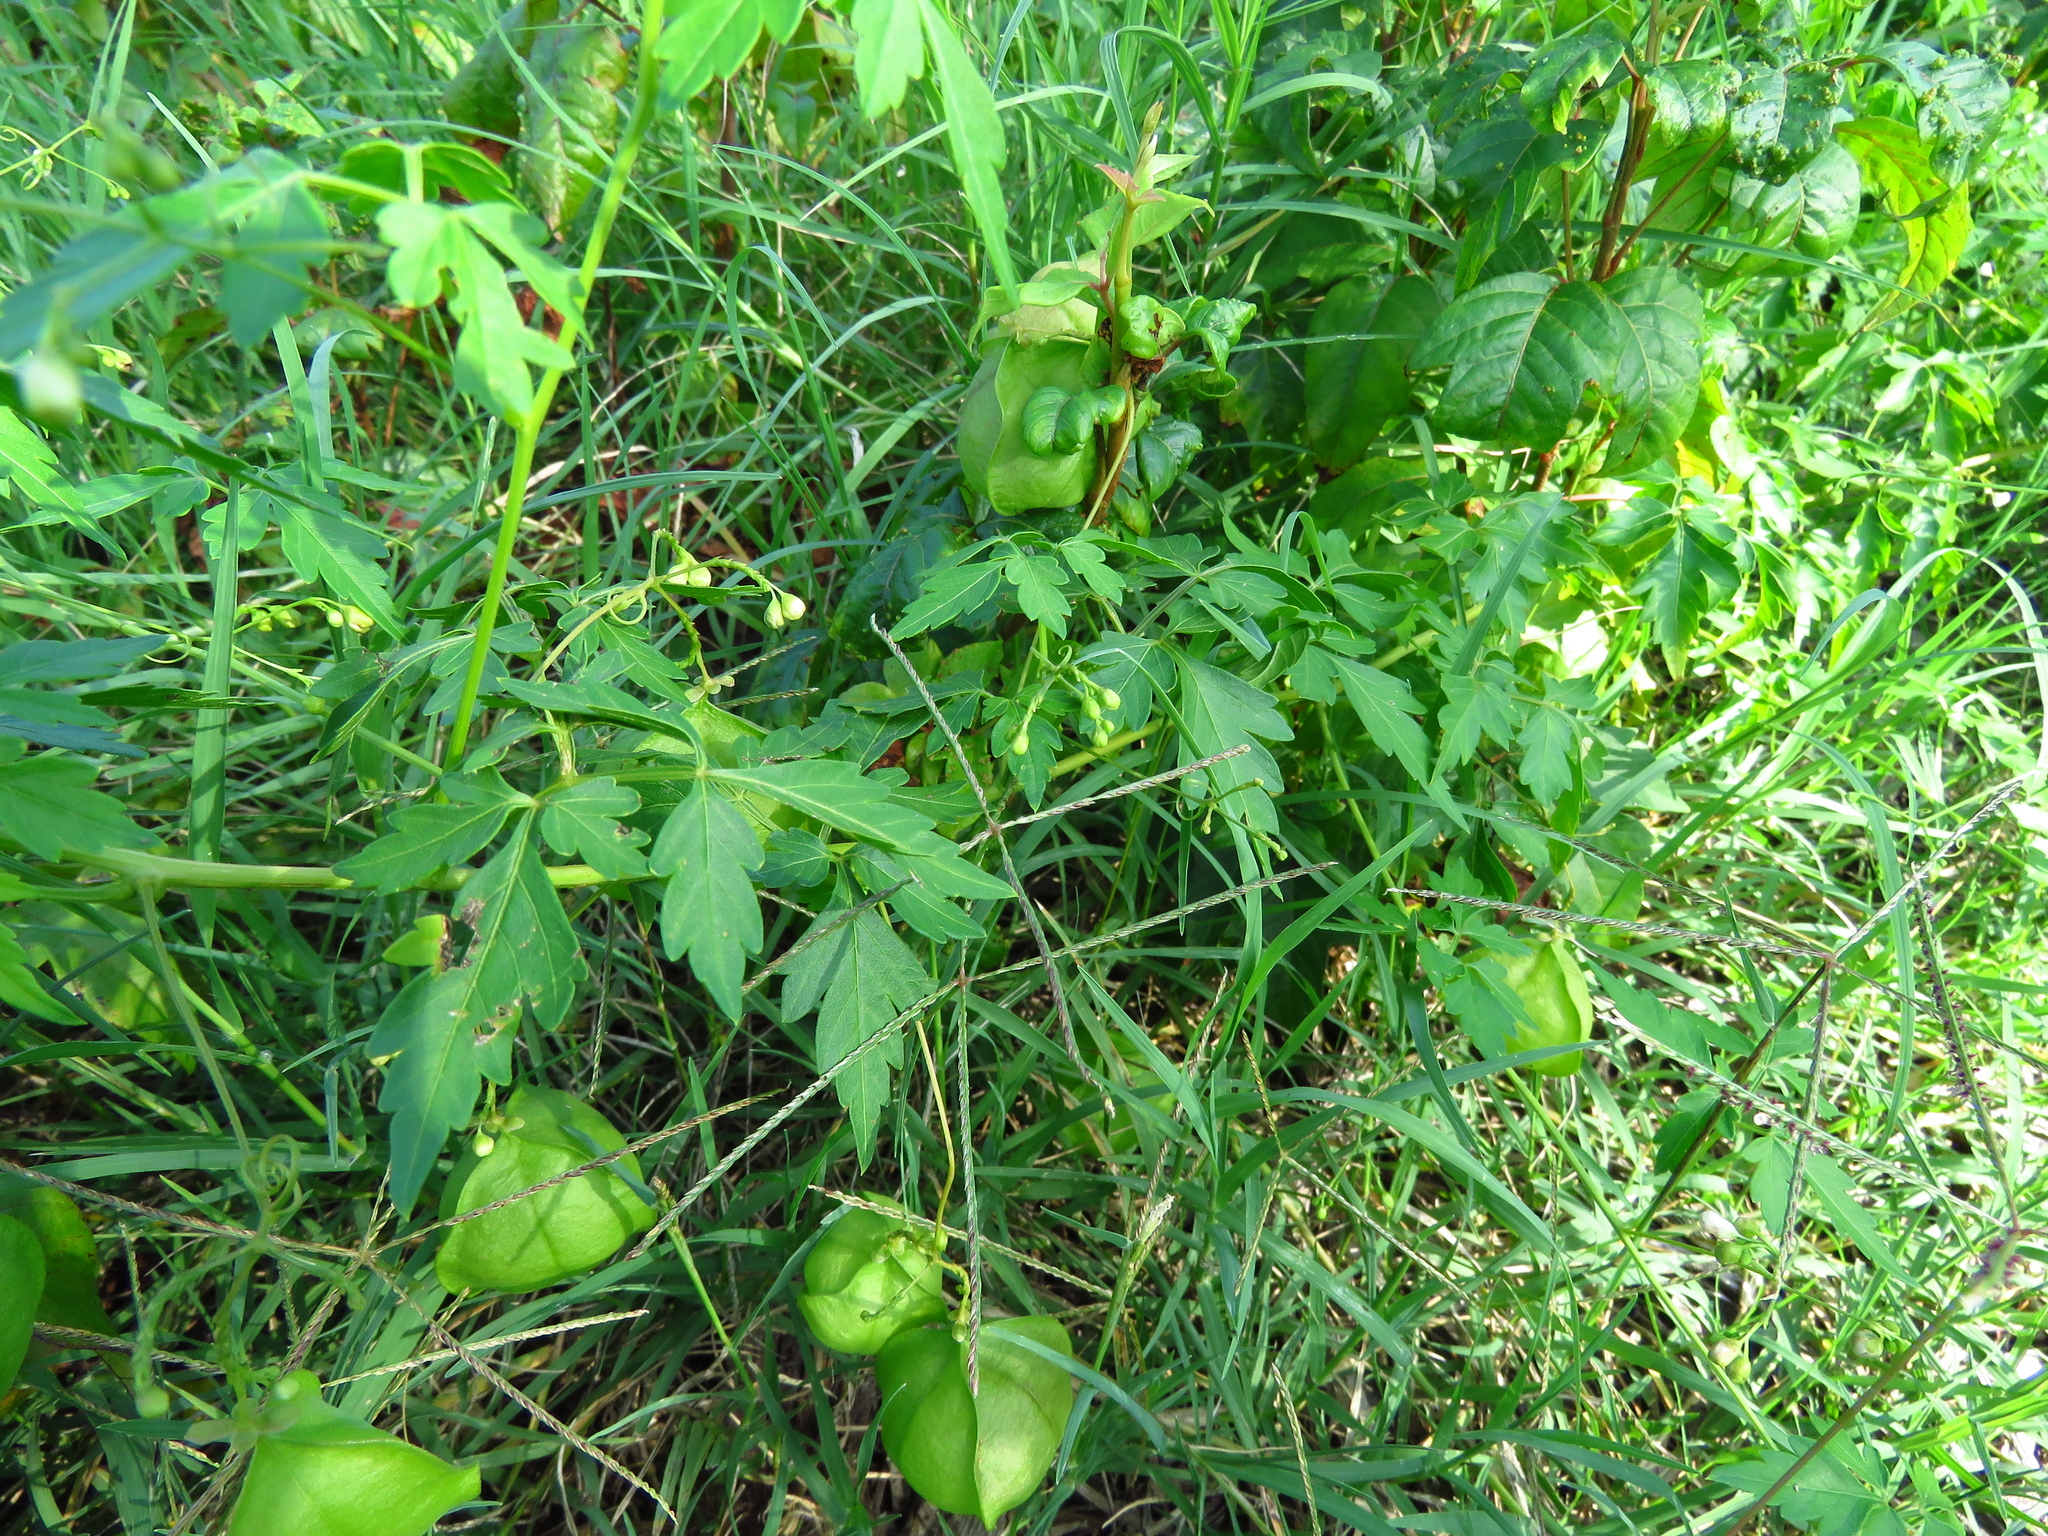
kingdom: Plantae
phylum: Tracheophyta
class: Magnoliopsida
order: Sapindales
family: Sapindaceae
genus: Cardiospermum
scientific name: Cardiospermum halicacabum
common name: Balloon vine
